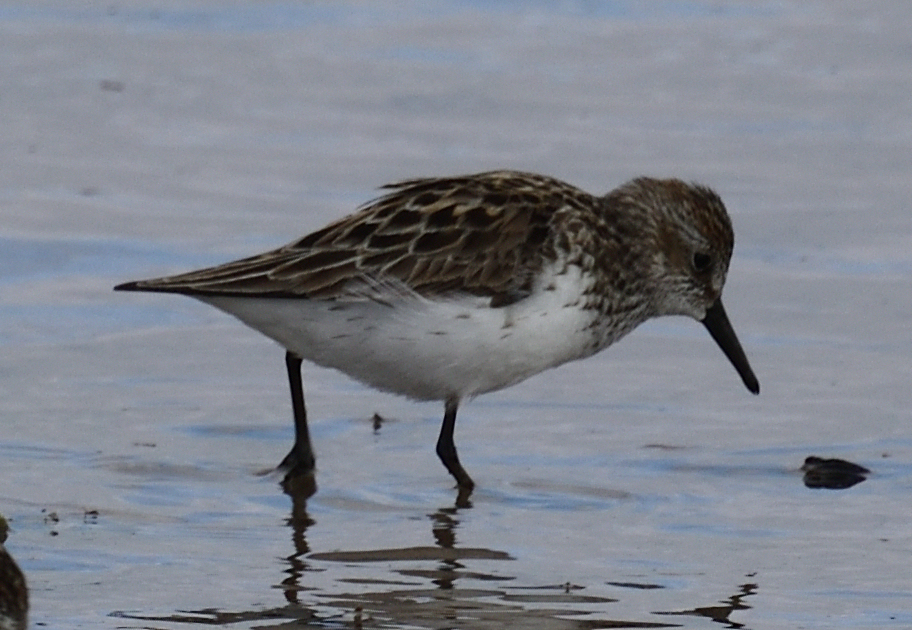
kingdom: Animalia
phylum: Chordata
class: Aves
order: Charadriiformes
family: Scolopacidae
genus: Calidris
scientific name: Calidris pusilla
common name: Semipalmated sandpiper
